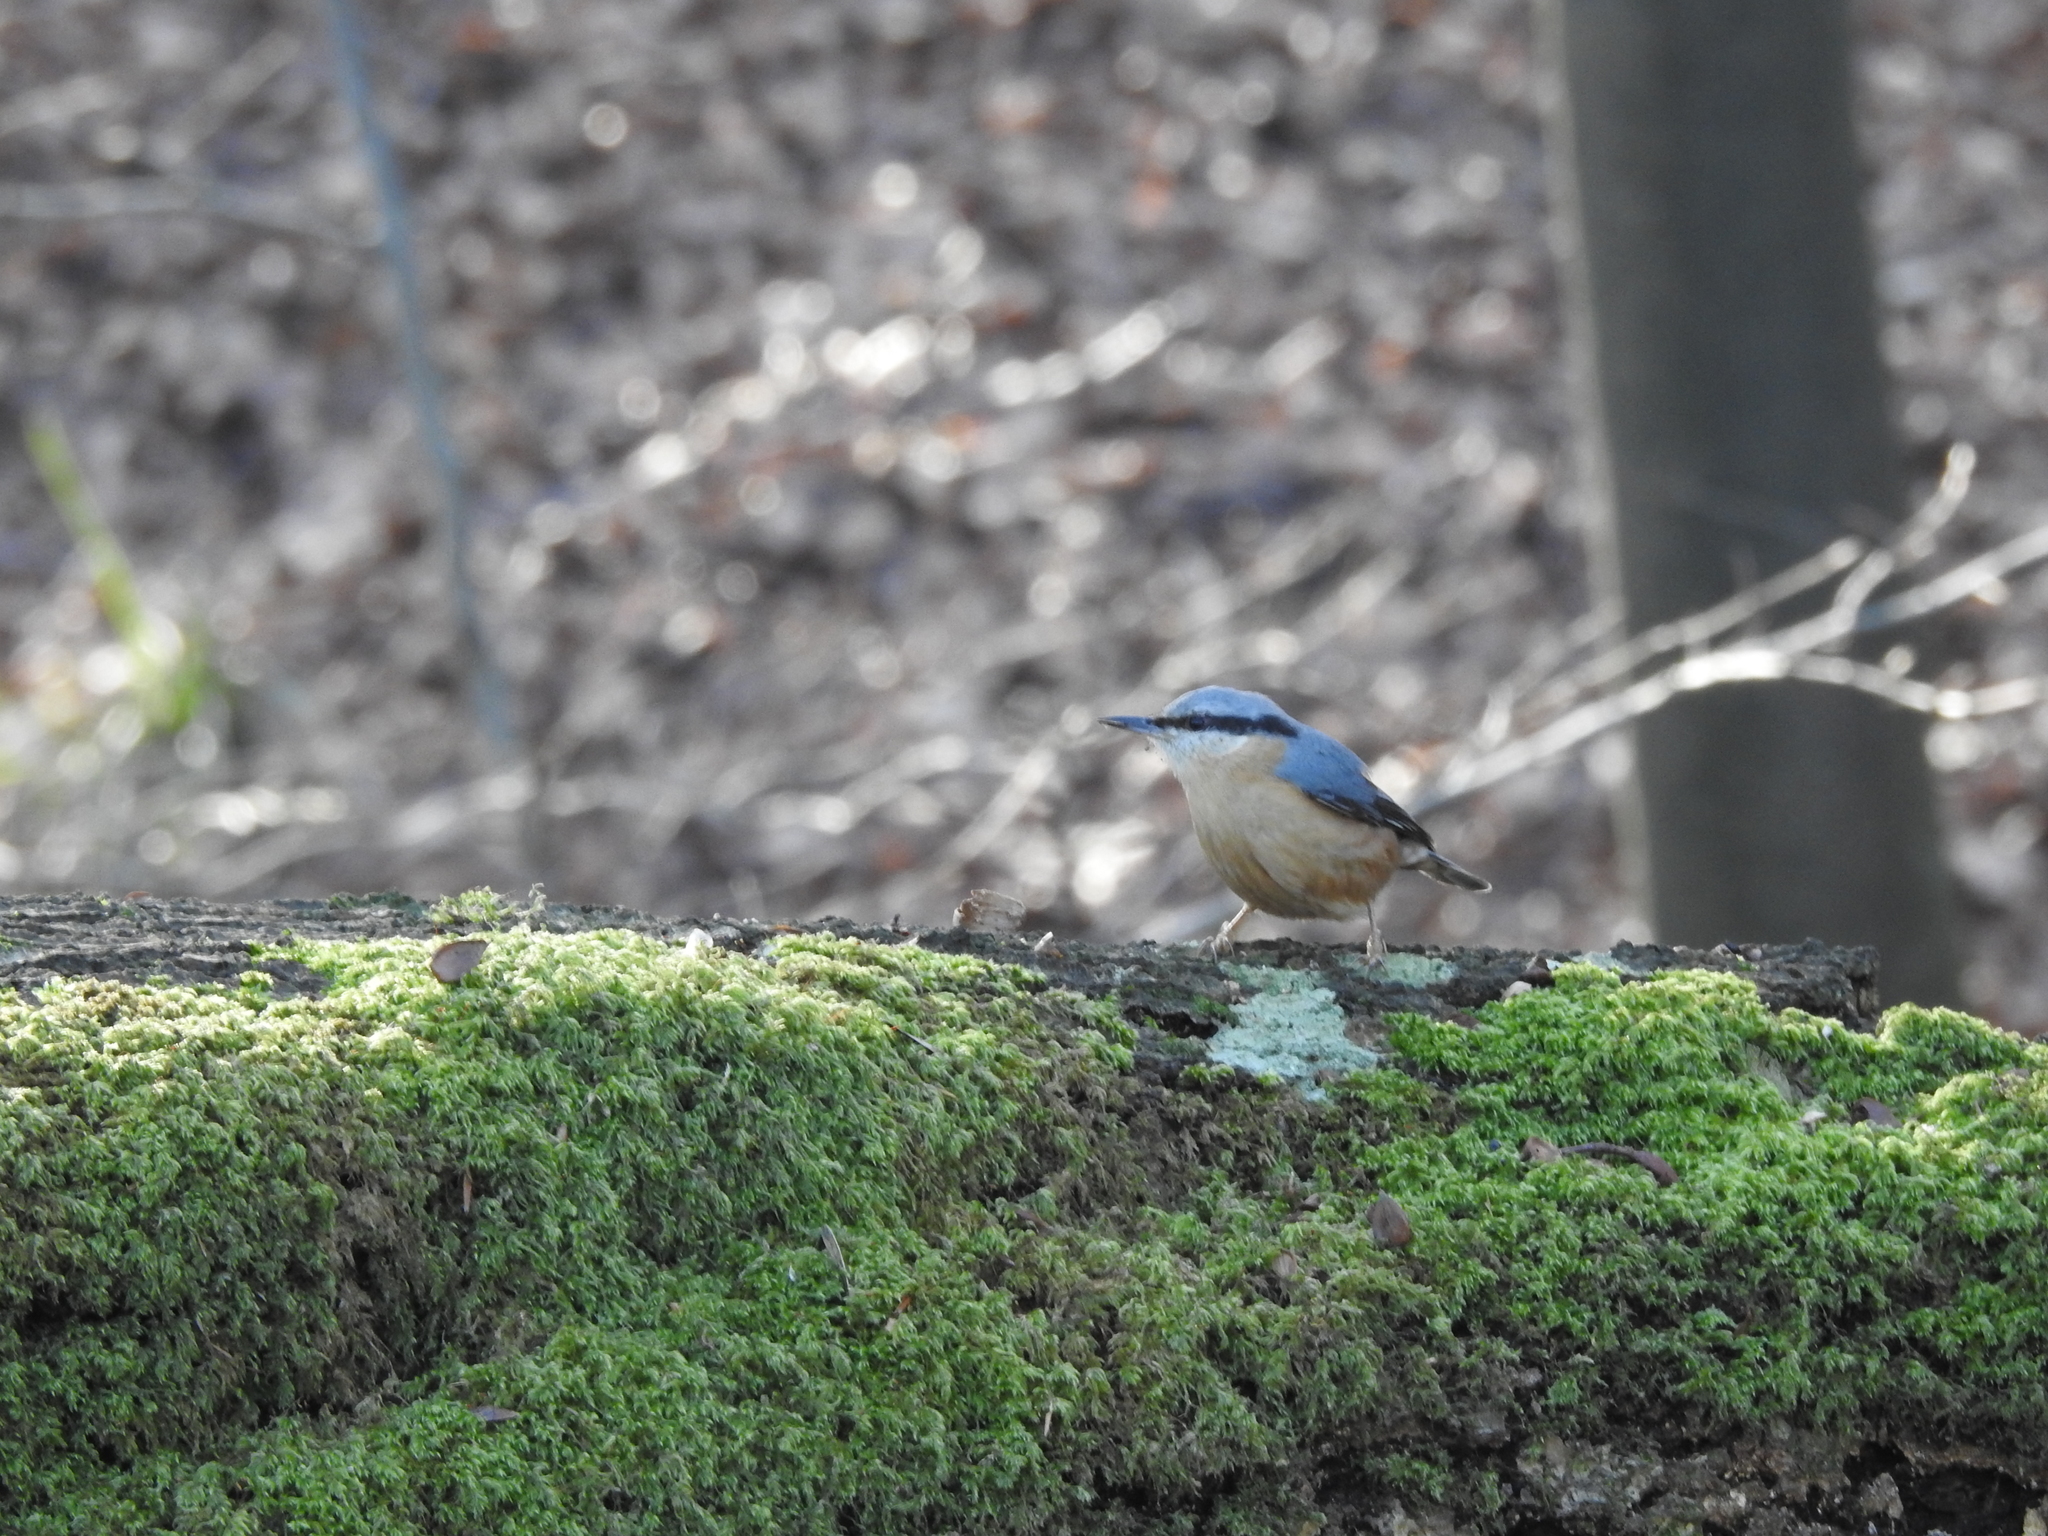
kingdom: Animalia
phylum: Chordata
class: Aves
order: Passeriformes
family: Sittidae
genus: Sitta
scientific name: Sitta europaea
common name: Eurasian nuthatch
